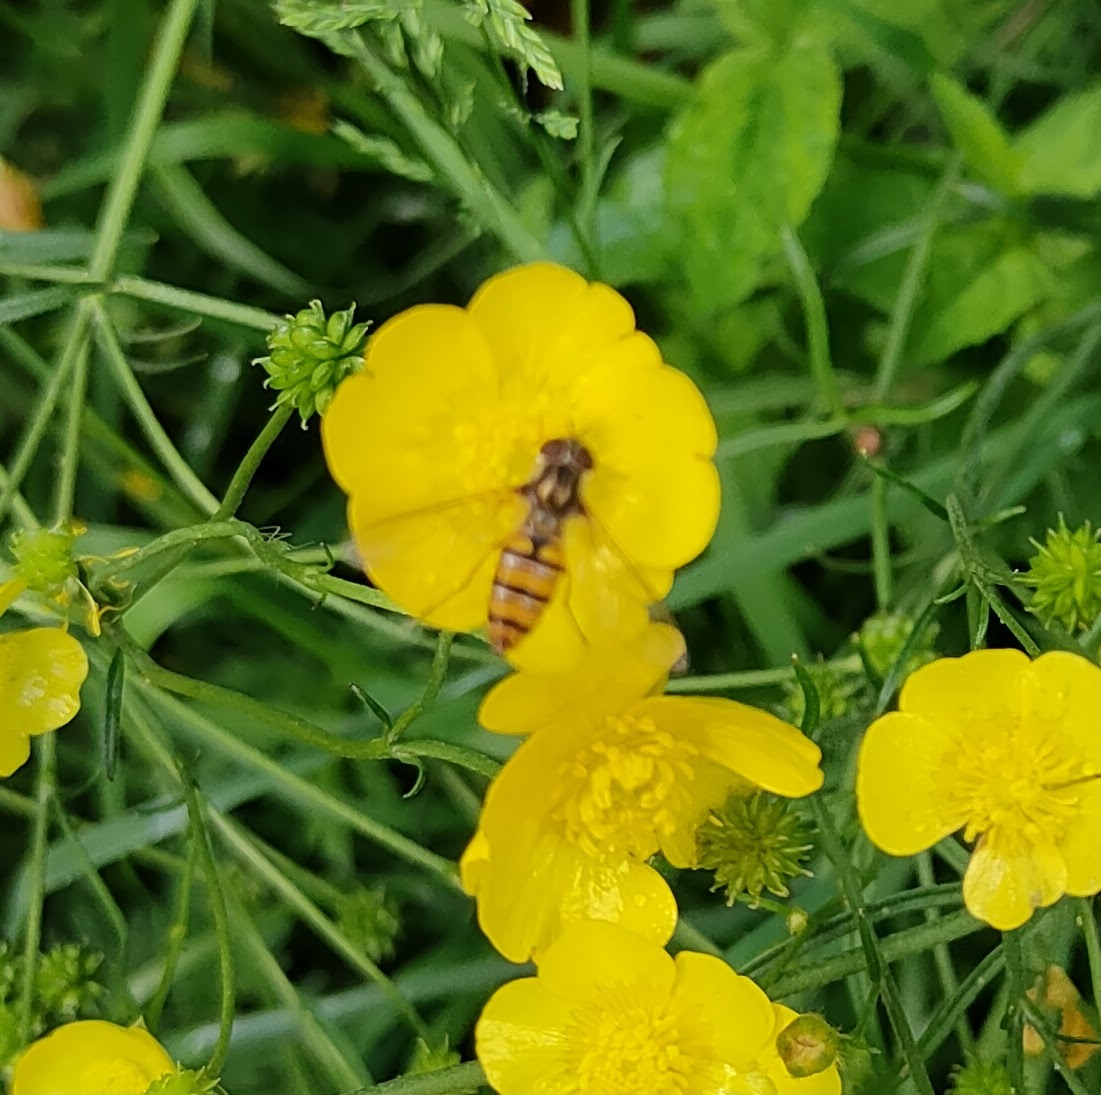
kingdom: Animalia
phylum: Arthropoda
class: Insecta
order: Diptera
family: Syrphidae
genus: Episyrphus
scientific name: Episyrphus balteatus
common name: Marmalade hoverfly
